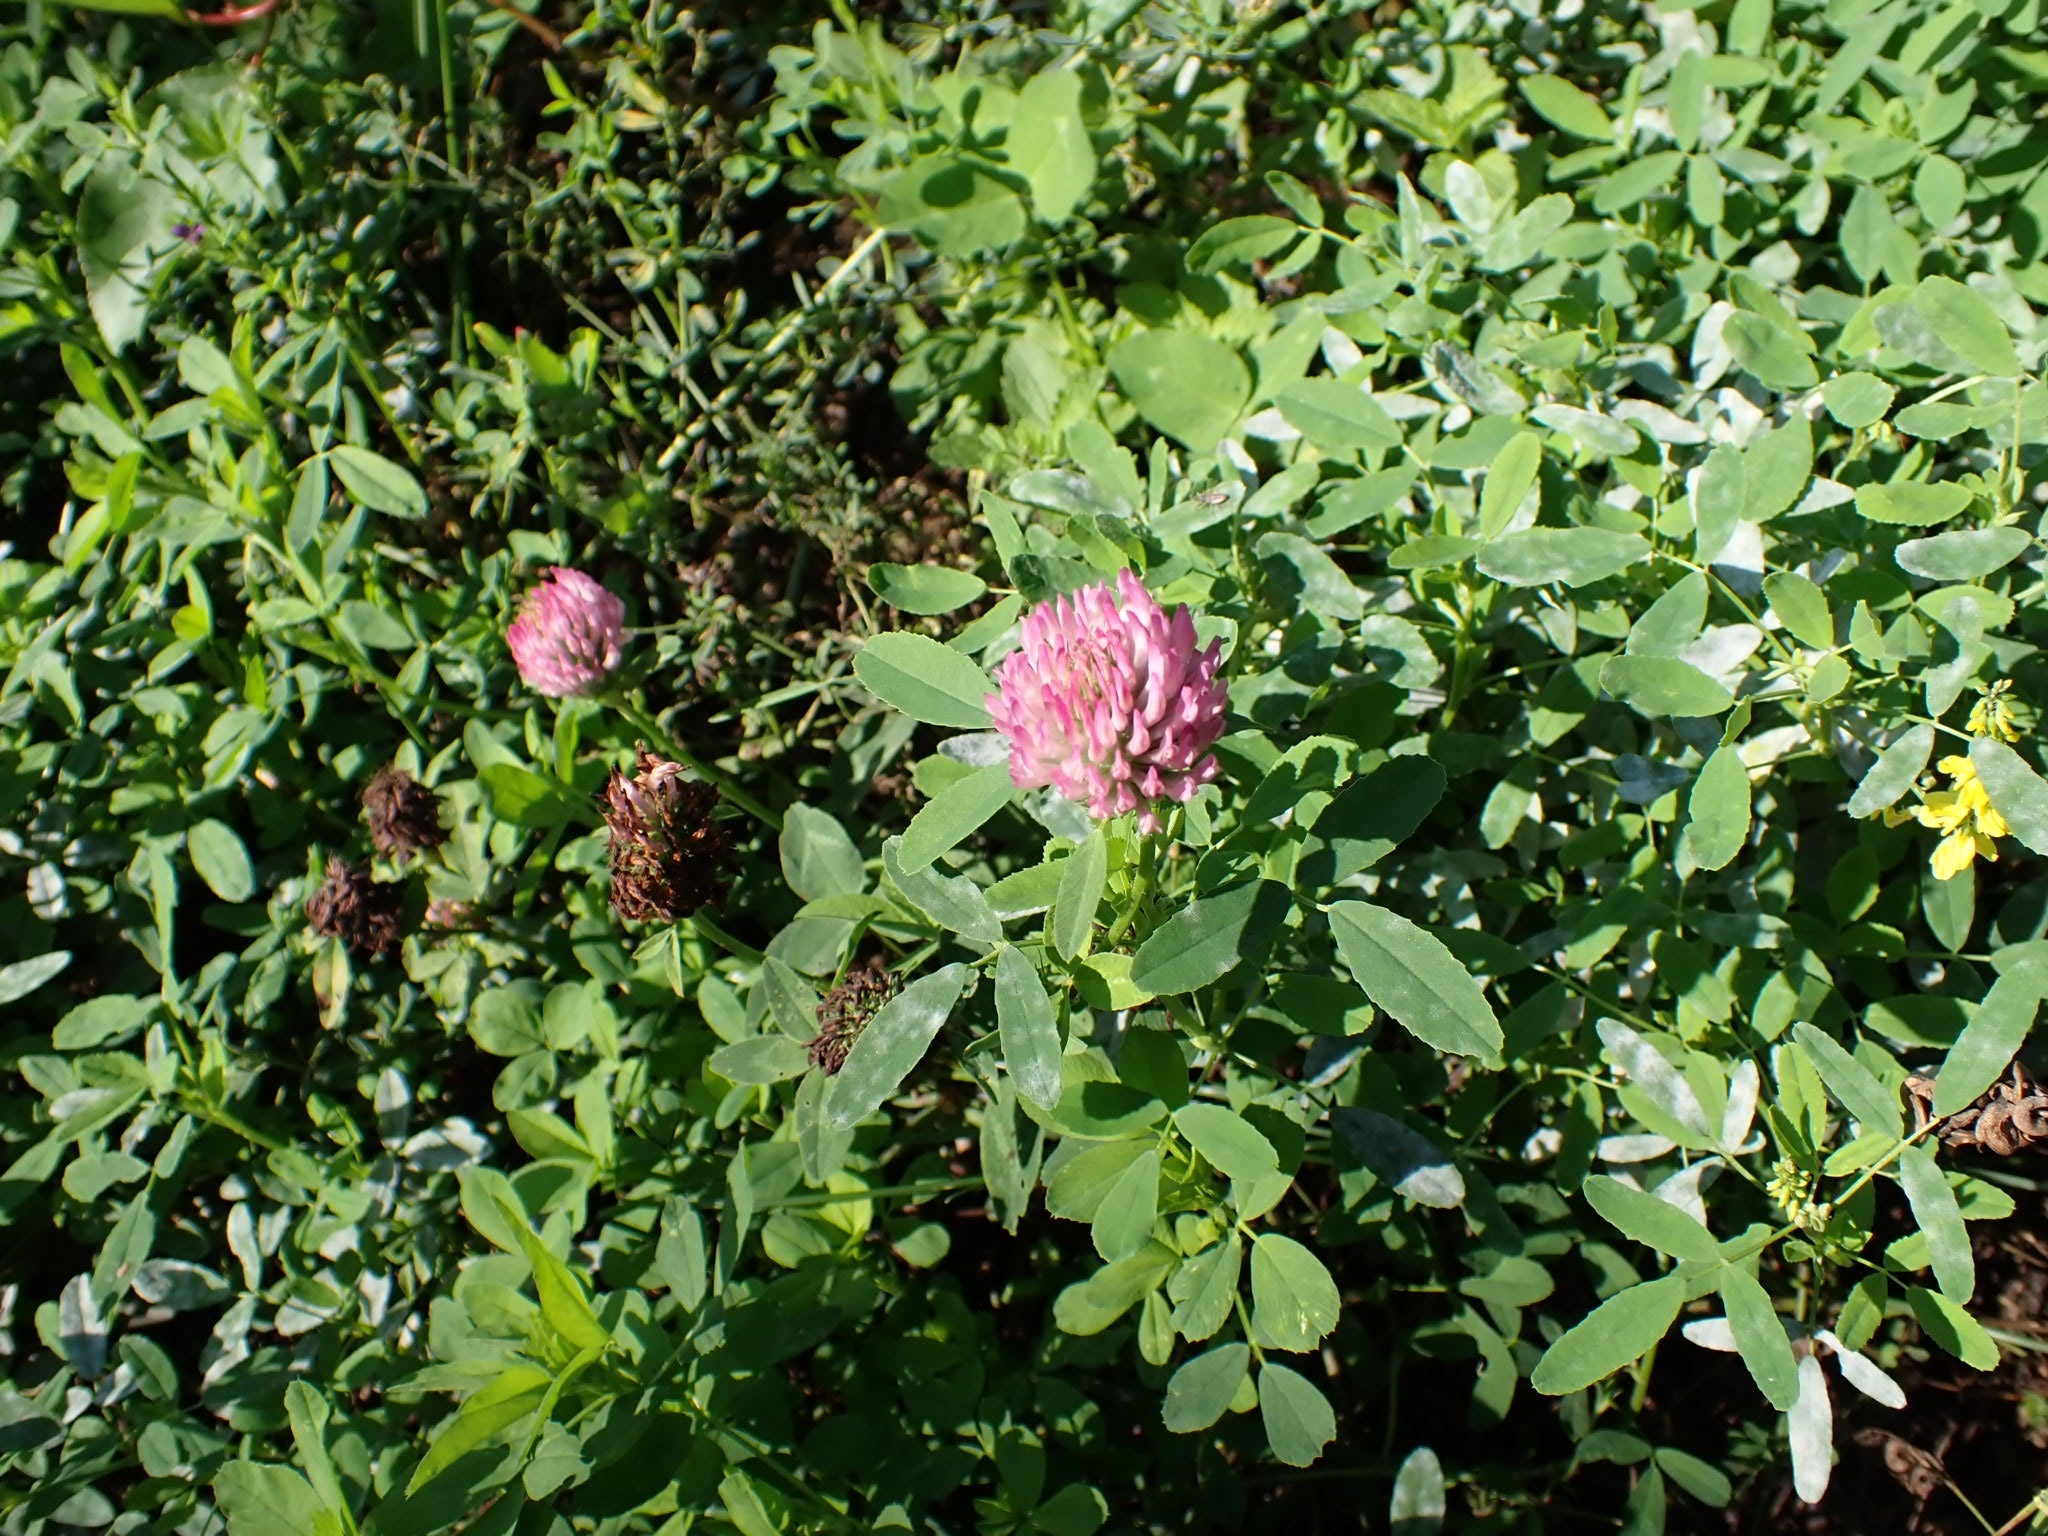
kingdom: Plantae
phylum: Tracheophyta
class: Magnoliopsida
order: Fabales
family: Fabaceae
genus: Trifolium
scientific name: Trifolium pratense
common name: Red clover
